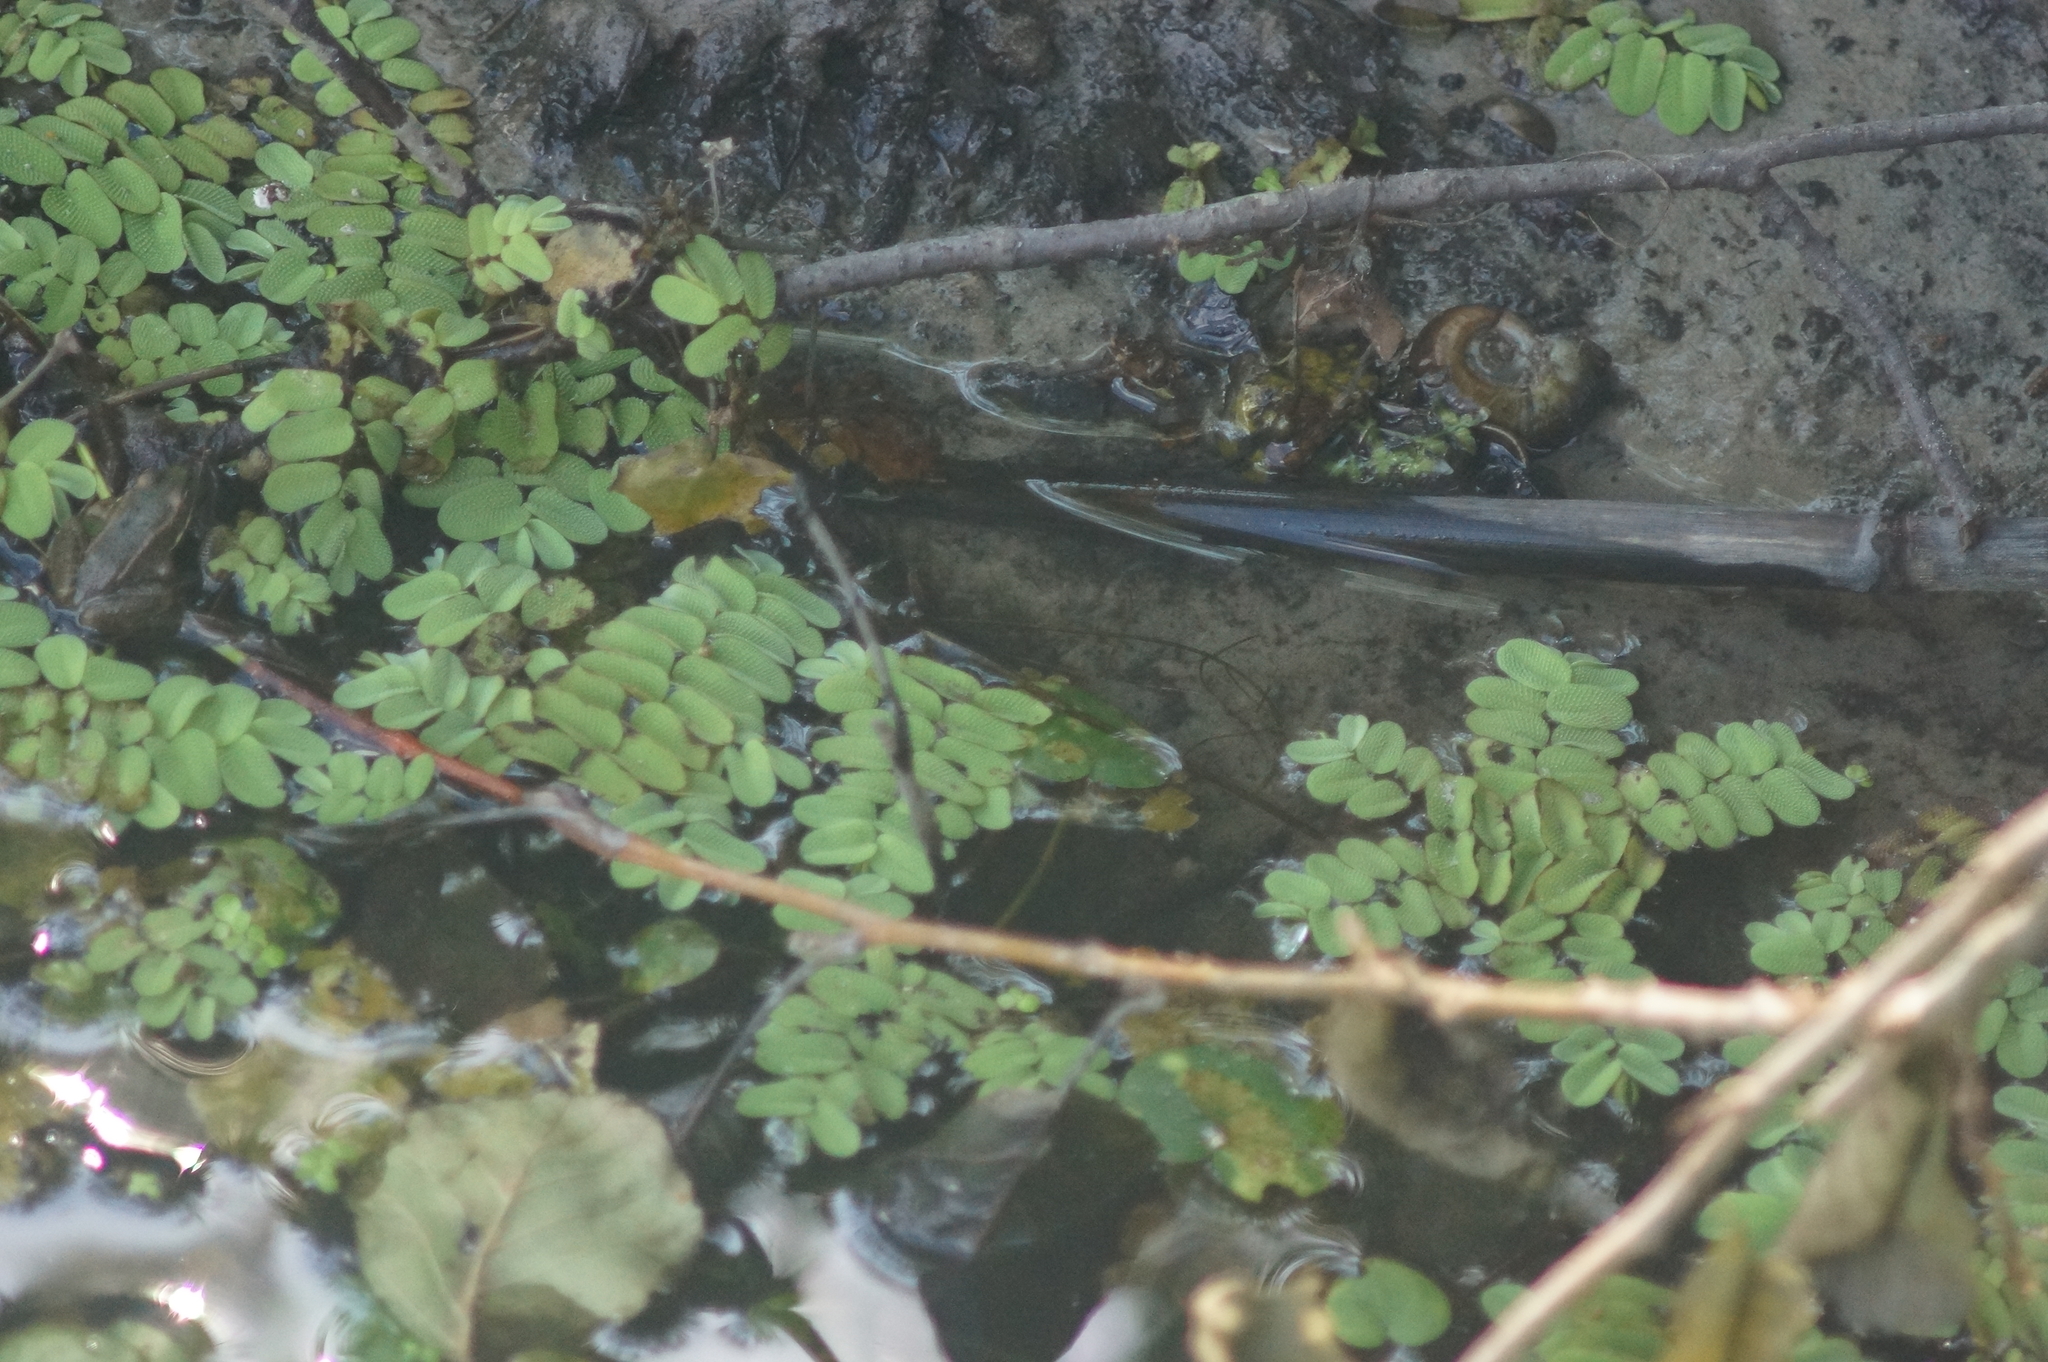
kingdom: Animalia
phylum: Mollusca
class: Gastropoda
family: Planorbidae
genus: Planorbarius
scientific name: Planorbarius corneus
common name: Great ramshorn
